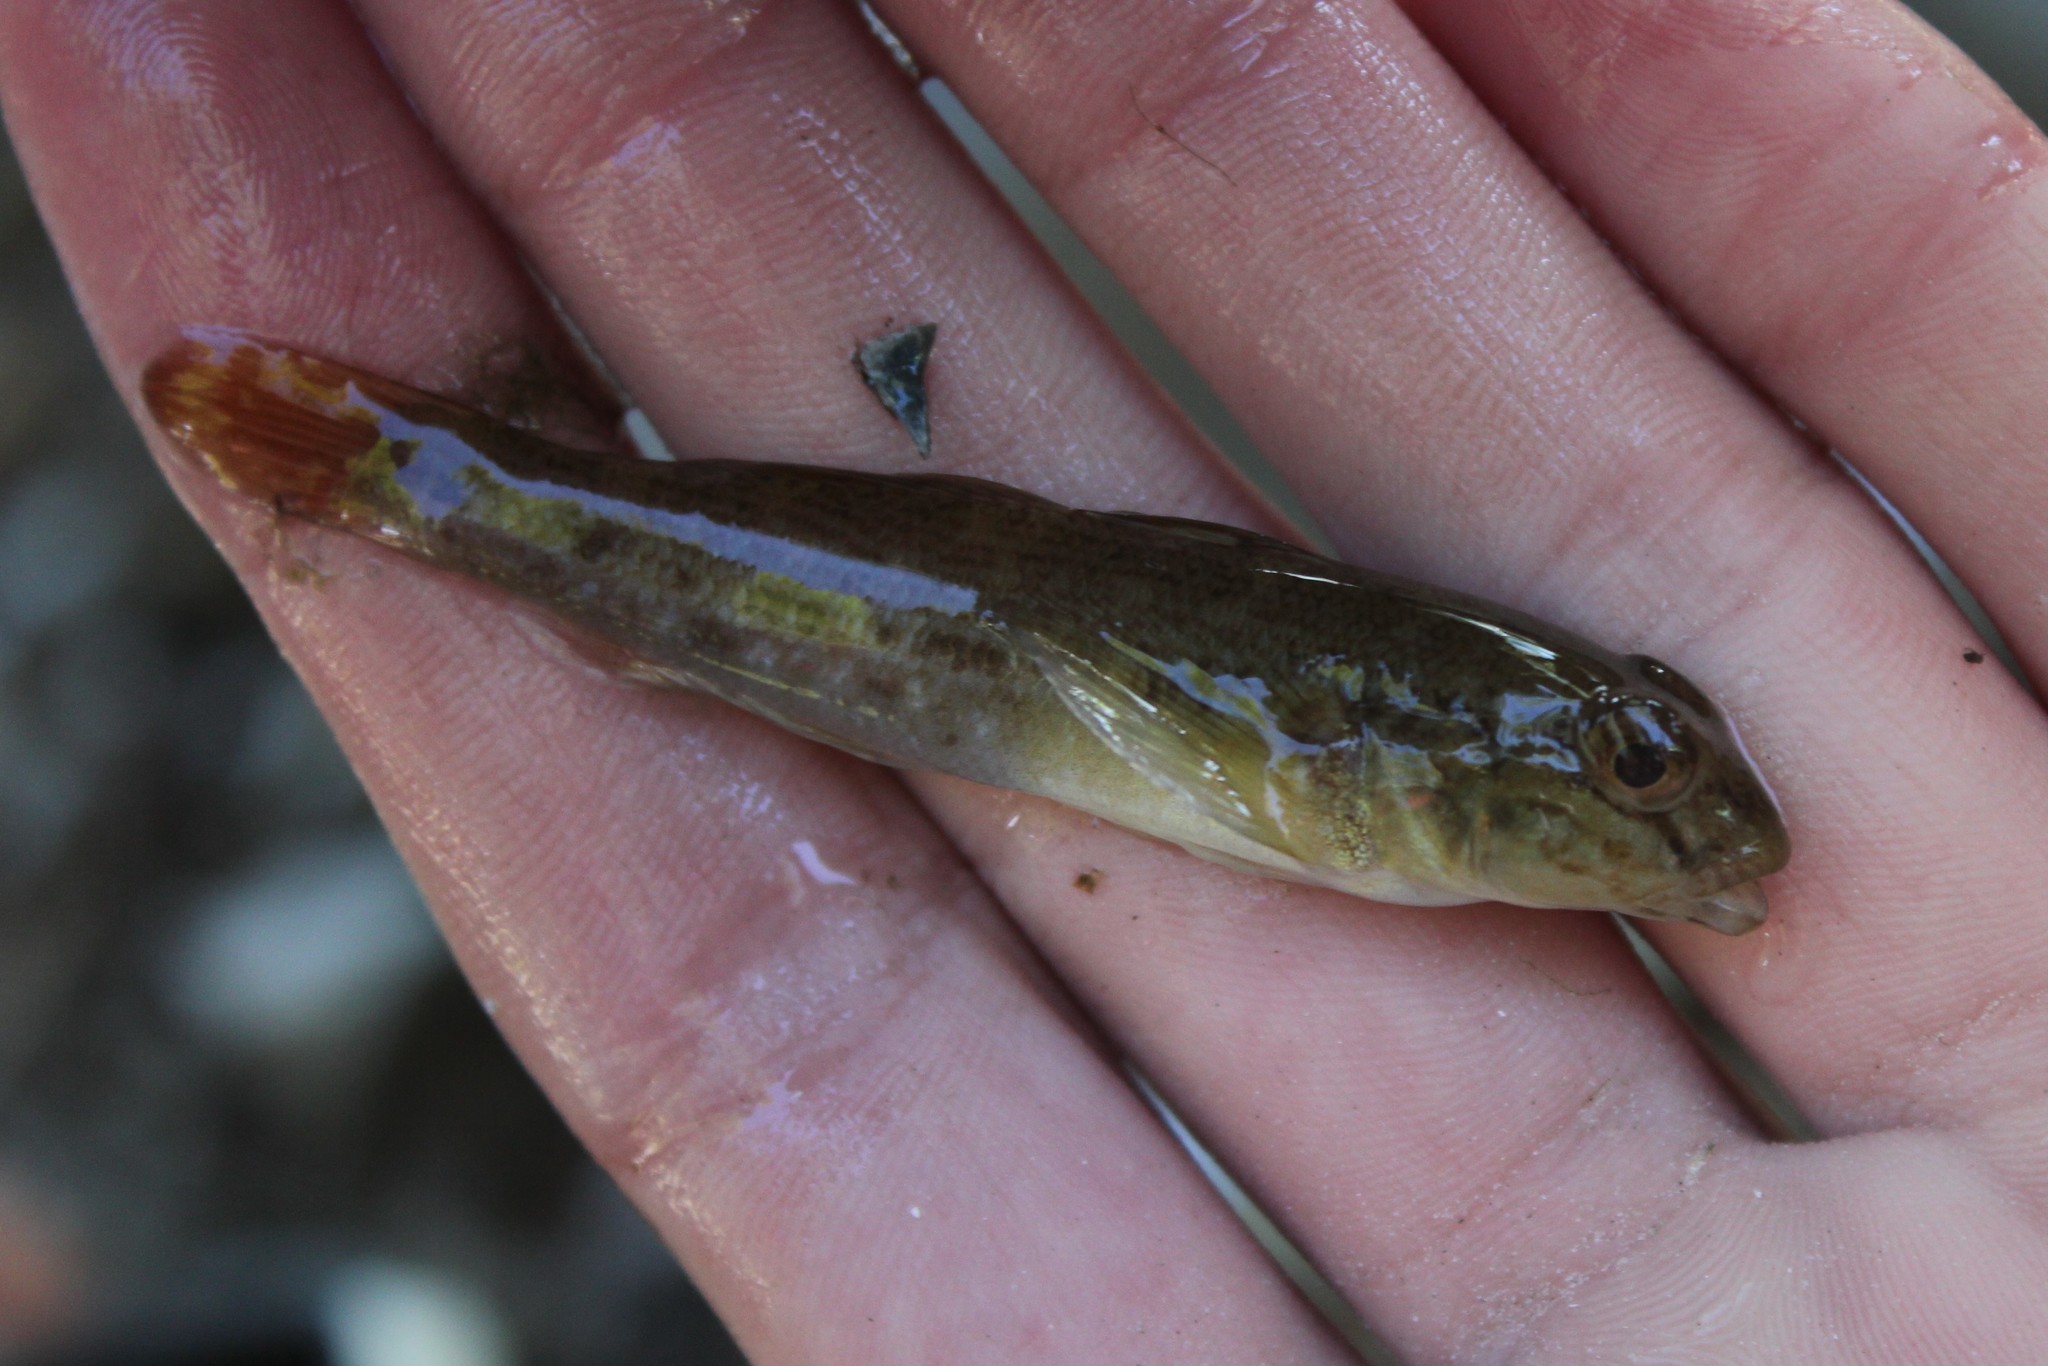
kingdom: Animalia
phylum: Chordata
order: Perciformes
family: Gobiidae
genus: Neogobius
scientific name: Neogobius melanostomus
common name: Round goby
